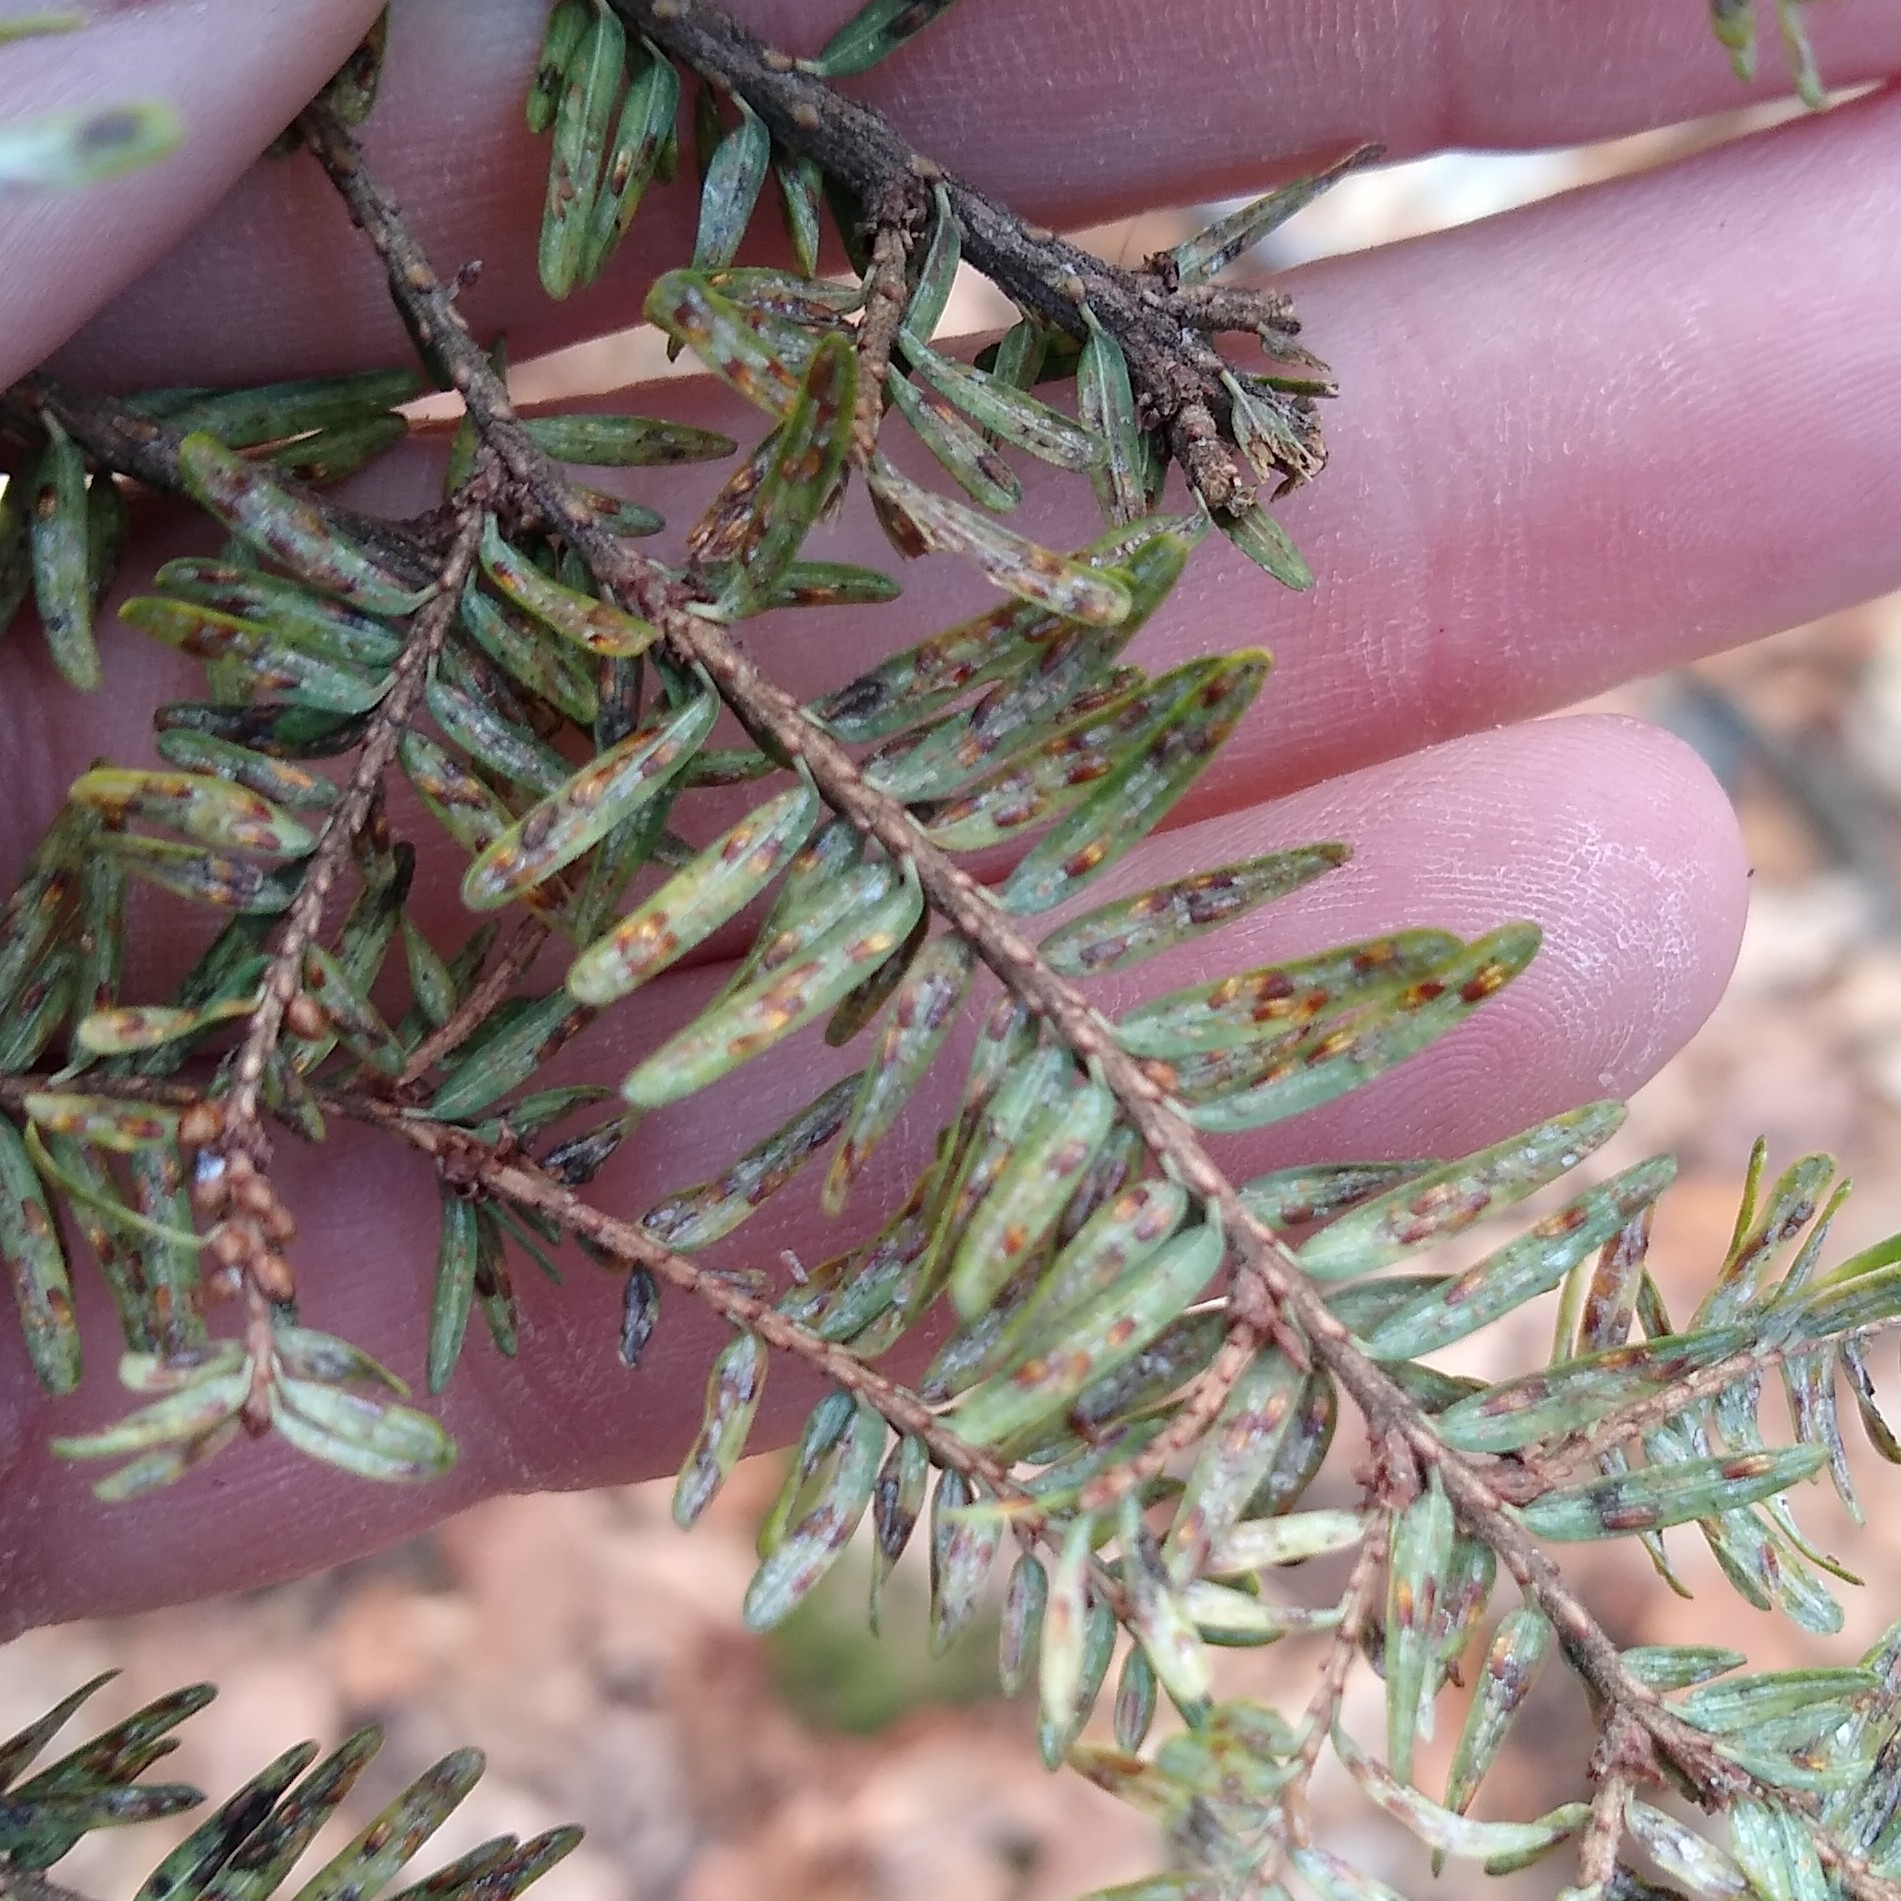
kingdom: Animalia
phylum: Arthropoda
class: Insecta
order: Hemiptera
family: Diaspididae
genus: Fiorinia
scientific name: Fiorinia externa
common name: Elongate hemlock scale
